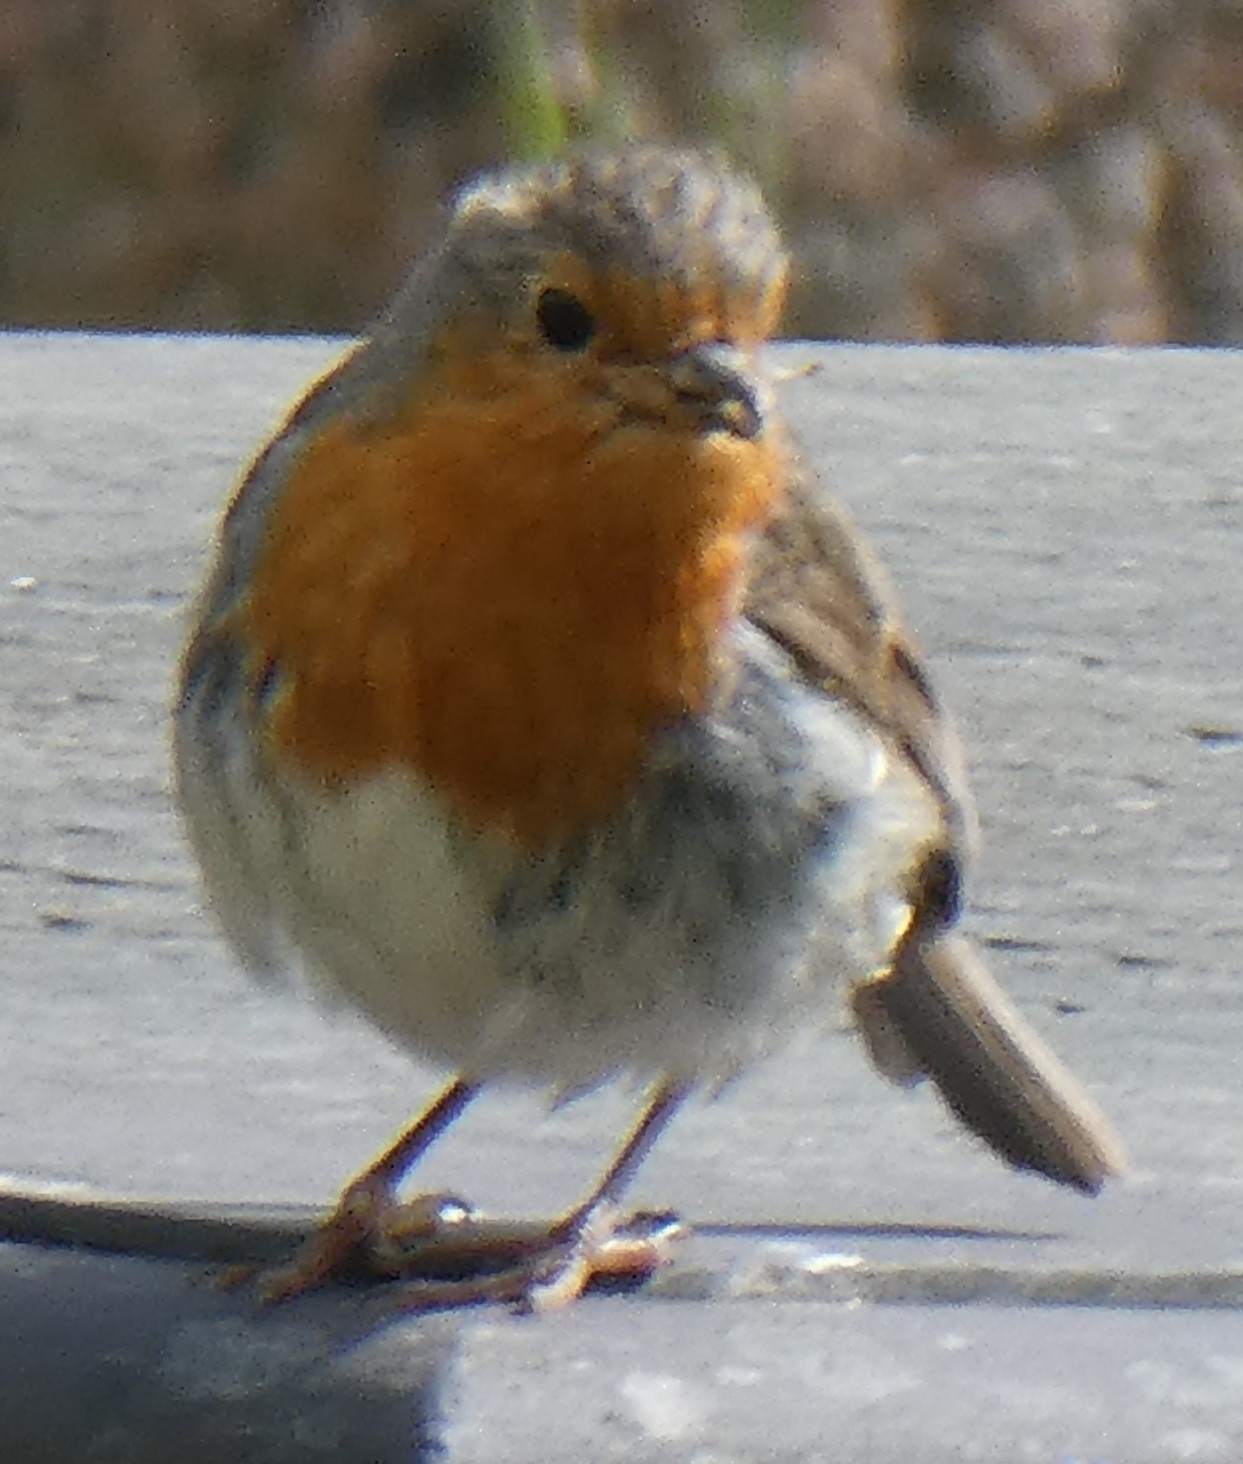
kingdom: Animalia
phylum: Chordata
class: Aves
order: Passeriformes
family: Muscicapidae
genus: Erithacus
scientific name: Erithacus rubecula
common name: European robin
